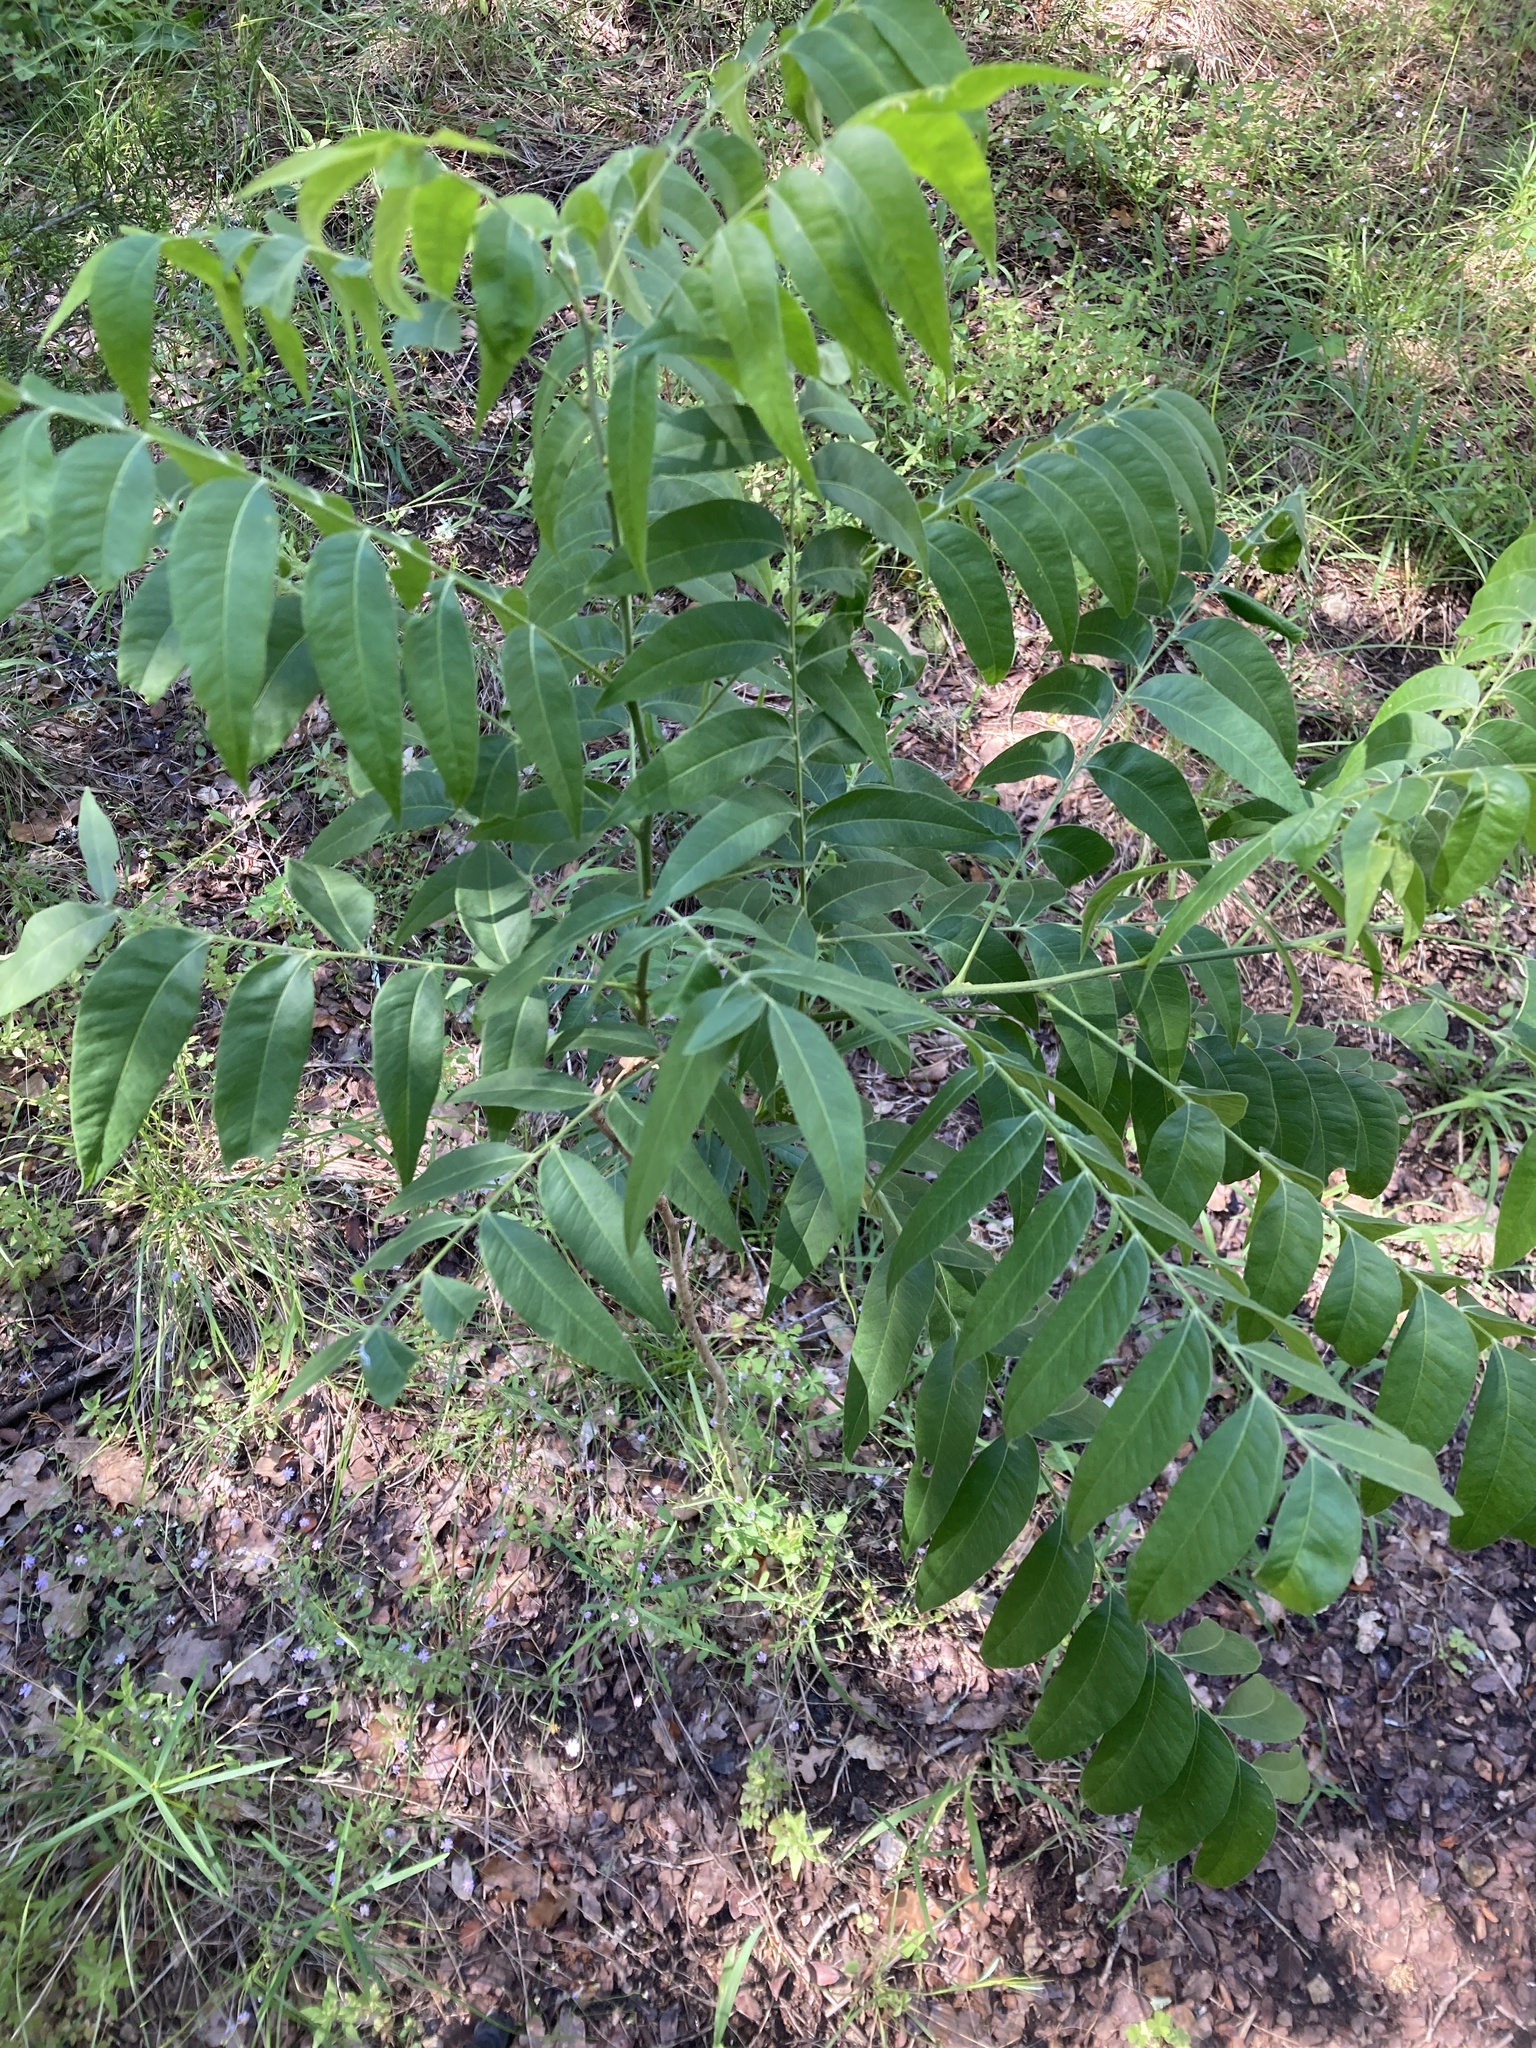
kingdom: Plantae
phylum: Tracheophyta
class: Magnoliopsida
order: Sapindales
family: Sapindaceae
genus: Sapindus
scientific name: Sapindus drummondii
